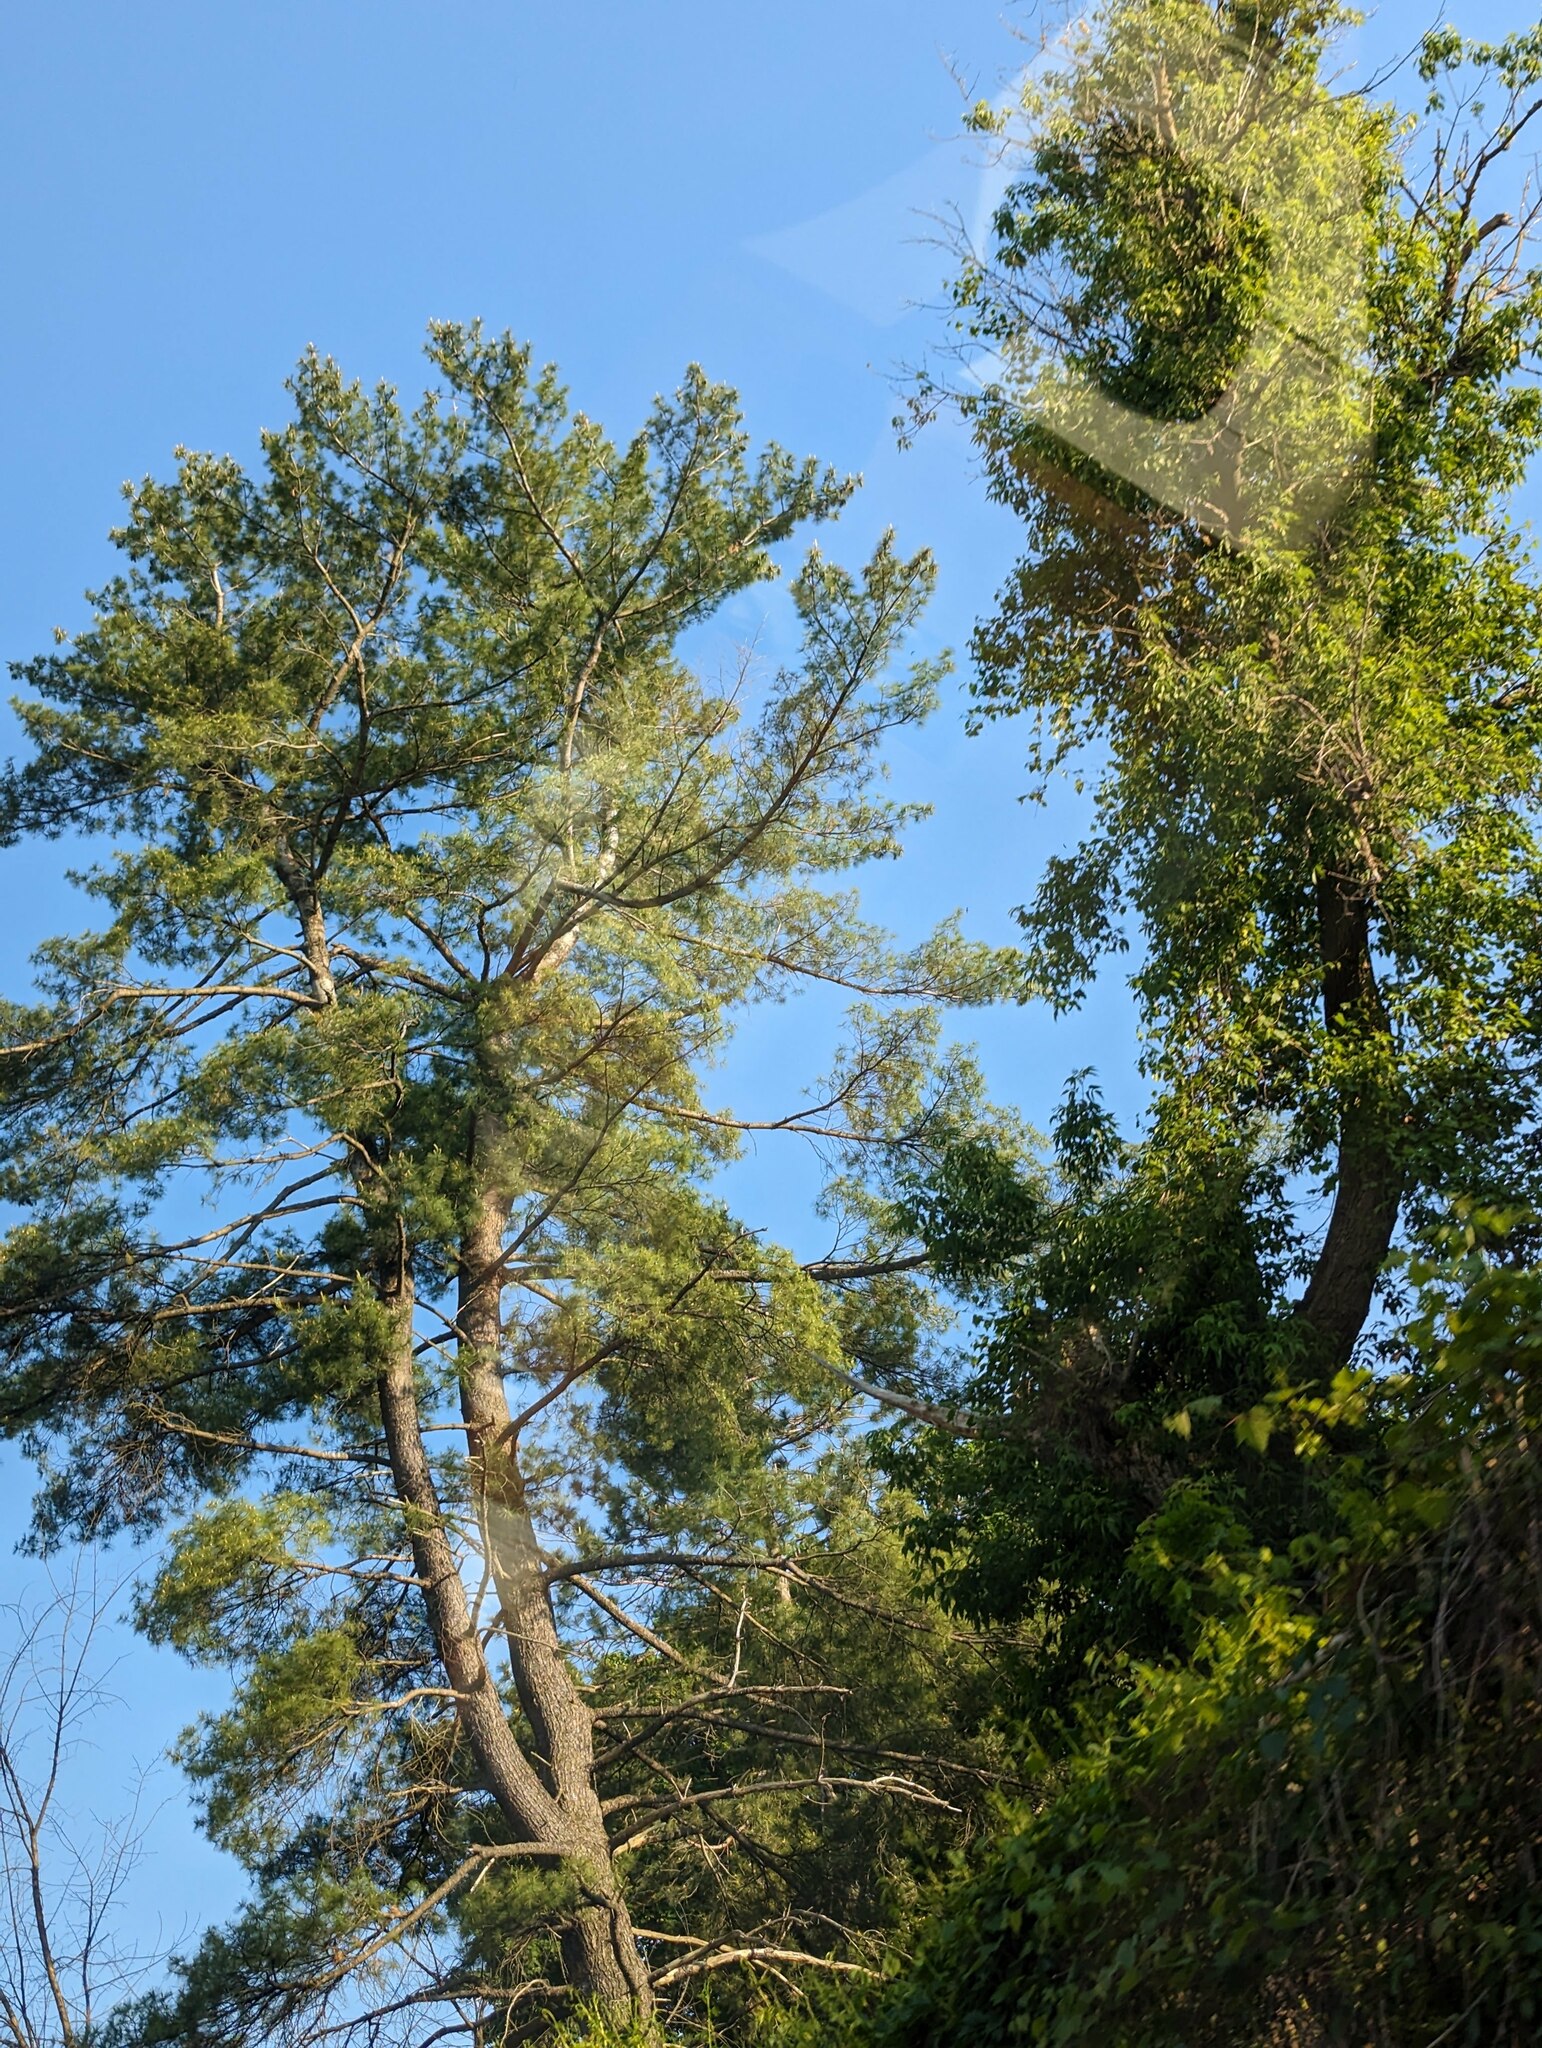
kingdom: Plantae
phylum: Tracheophyta
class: Pinopsida
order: Pinales
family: Pinaceae
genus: Pinus
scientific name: Pinus strobus
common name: Weymouth pine
